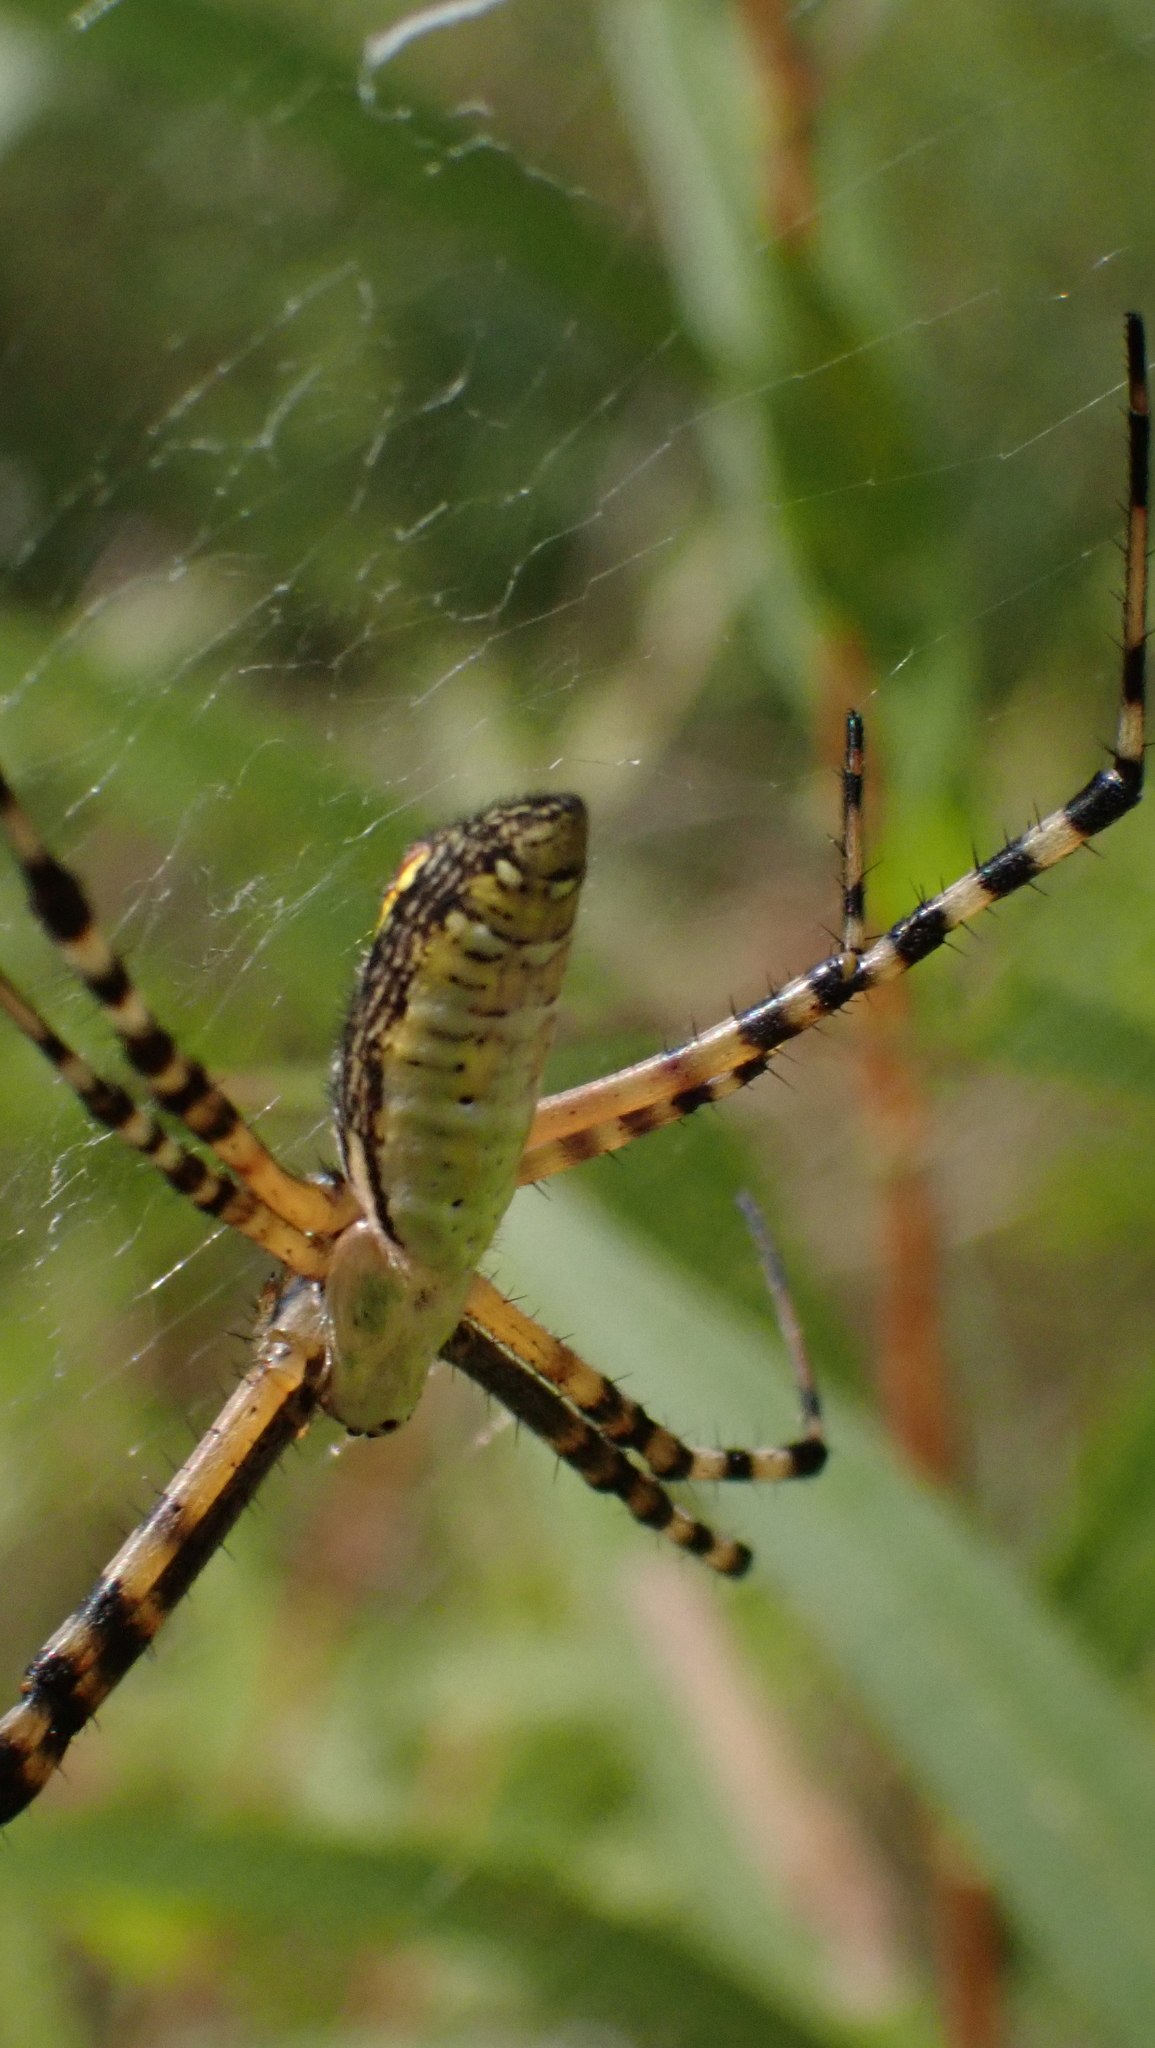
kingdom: Animalia
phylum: Arthropoda
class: Arachnida
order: Araneae
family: Araneidae
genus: Argiope
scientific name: Argiope trifasciata
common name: Banded garden spider
